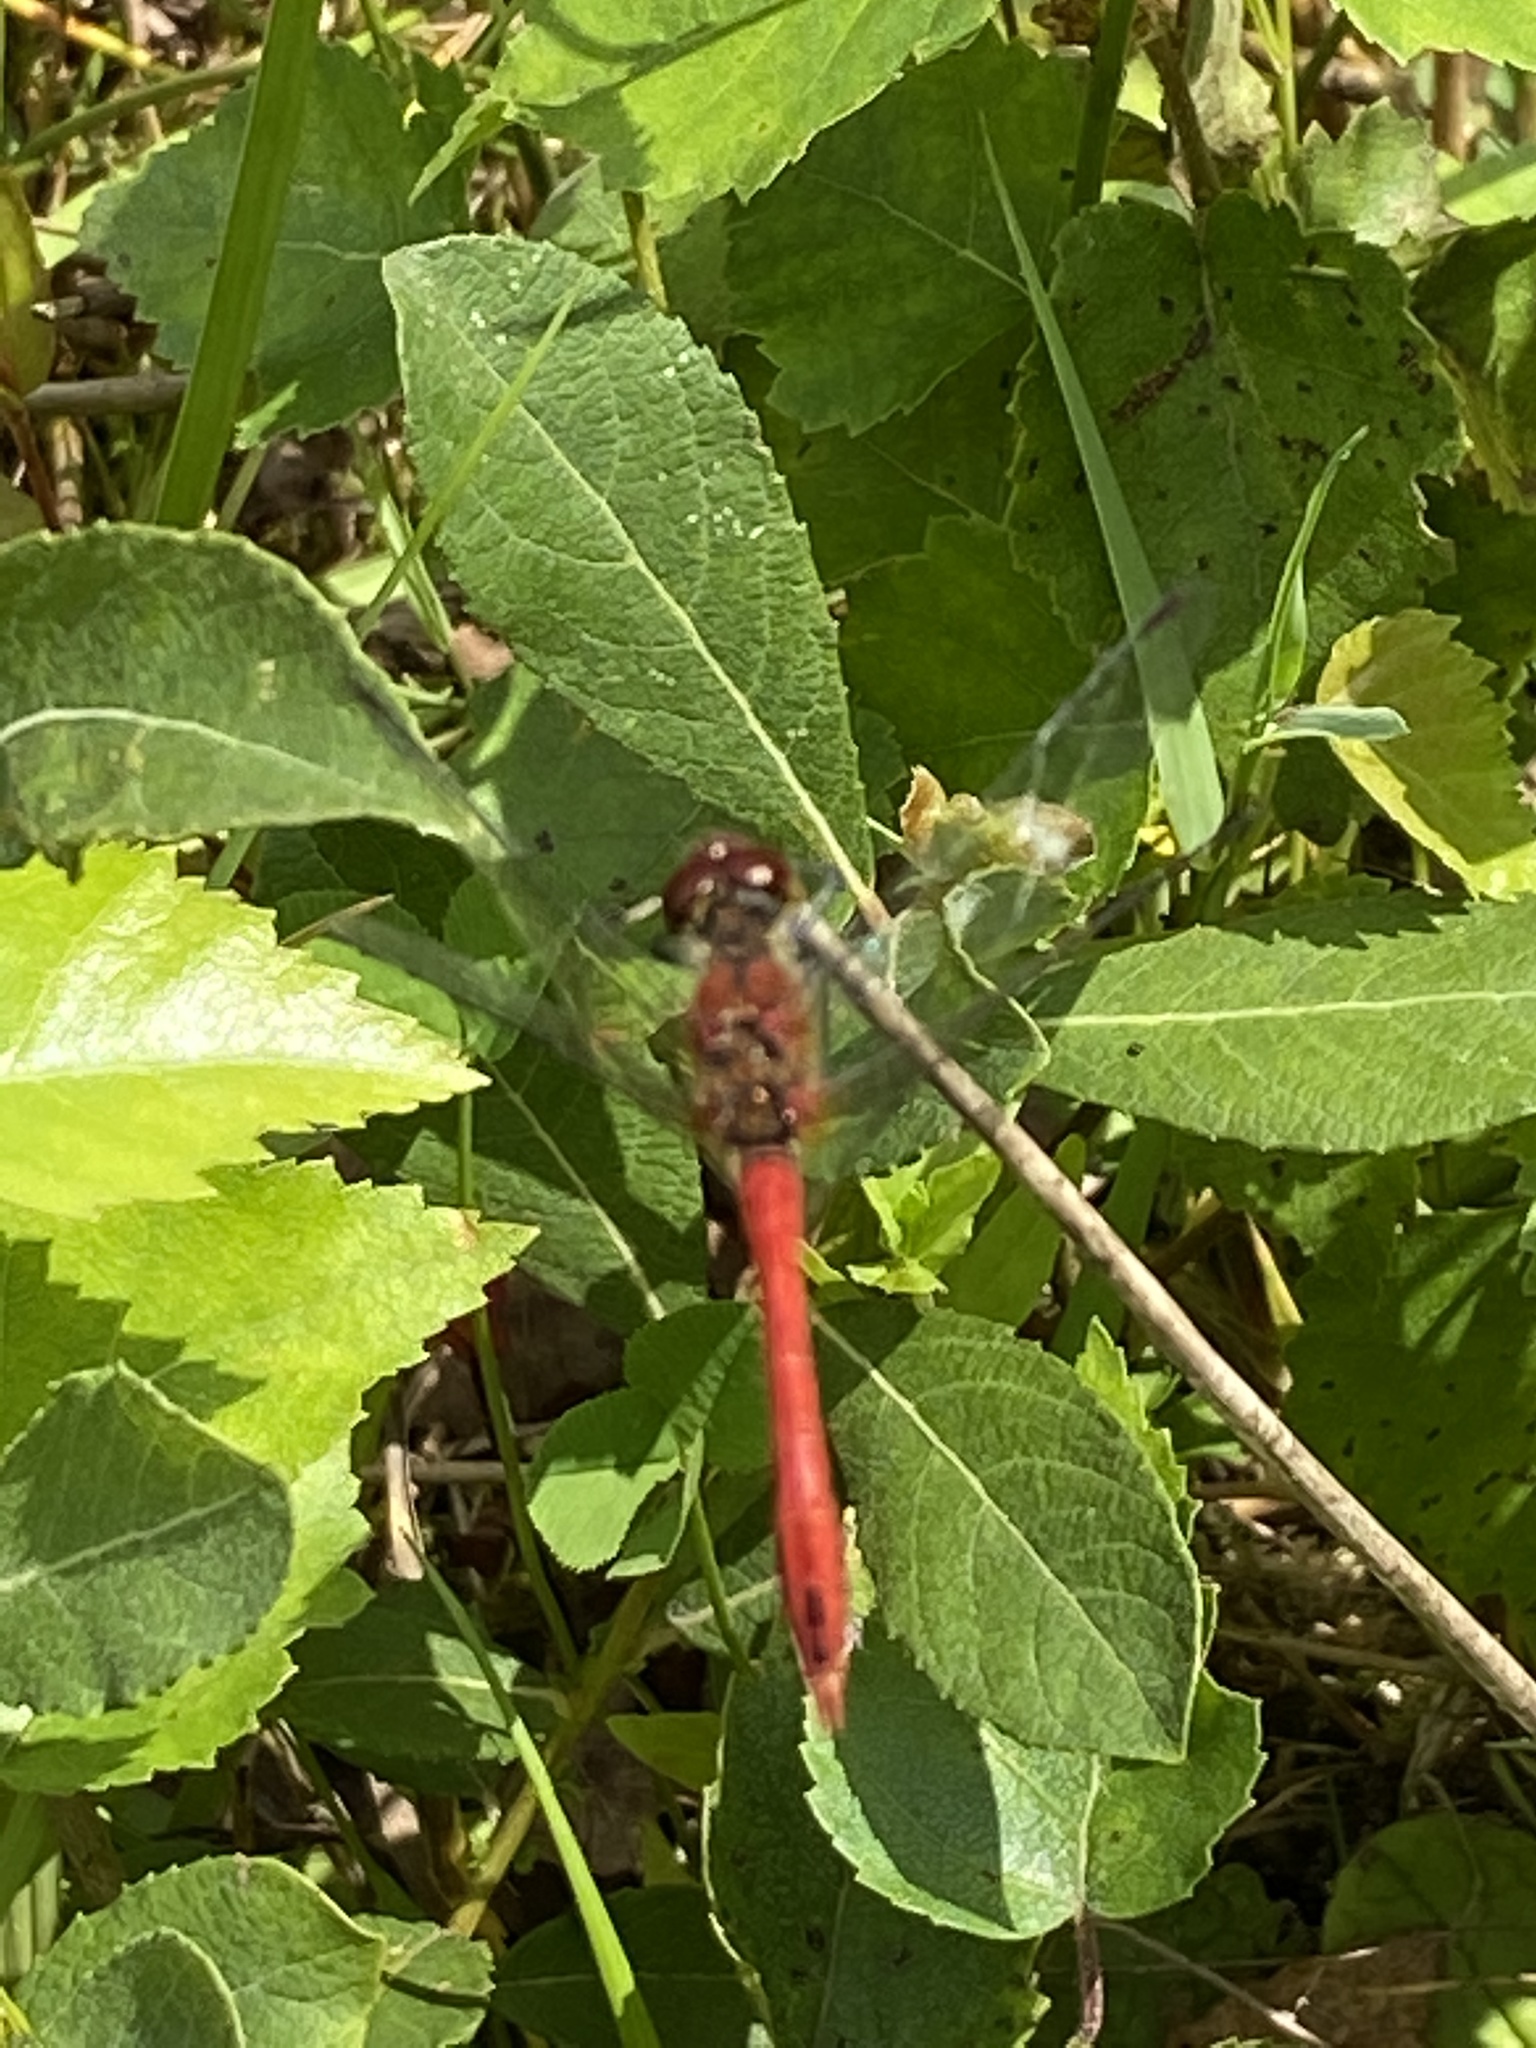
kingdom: Animalia
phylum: Arthropoda
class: Insecta
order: Odonata
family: Libellulidae
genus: Sympetrum
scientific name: Sympetrum sanguineum
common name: Ruddy darter
